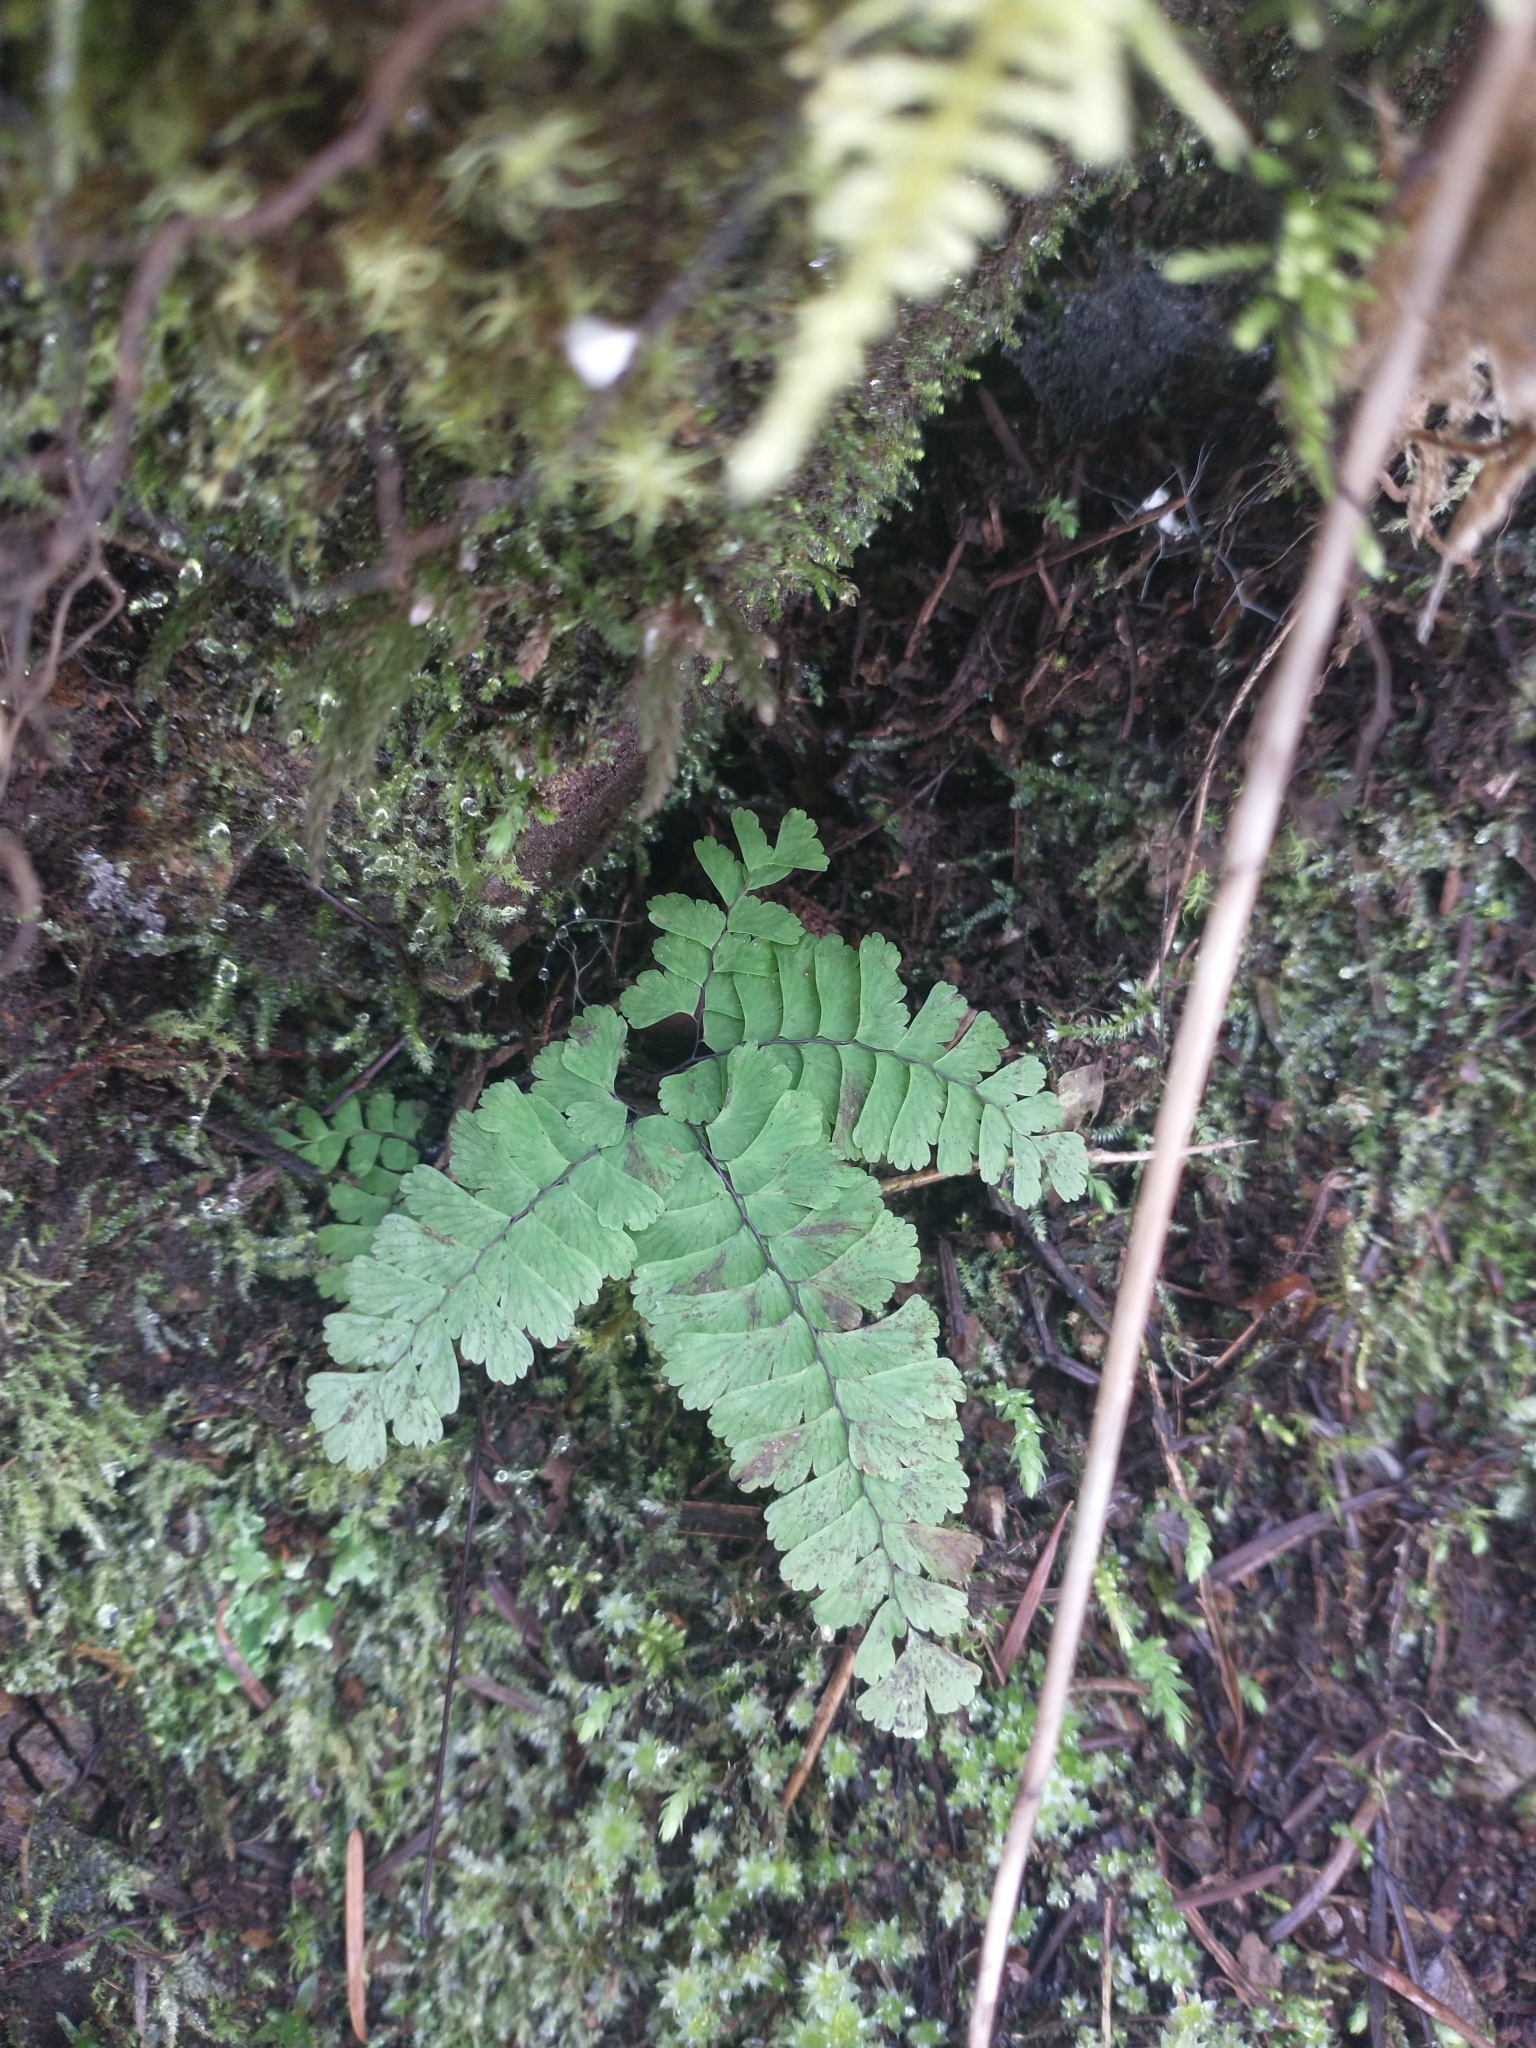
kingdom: Plantae
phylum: Tracheophyta
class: Polypodiopsida
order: Polypodiales
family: Pteridaceae
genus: Adiantum
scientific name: Adiantum aleuticum
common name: Aleutian maidenhair fern
